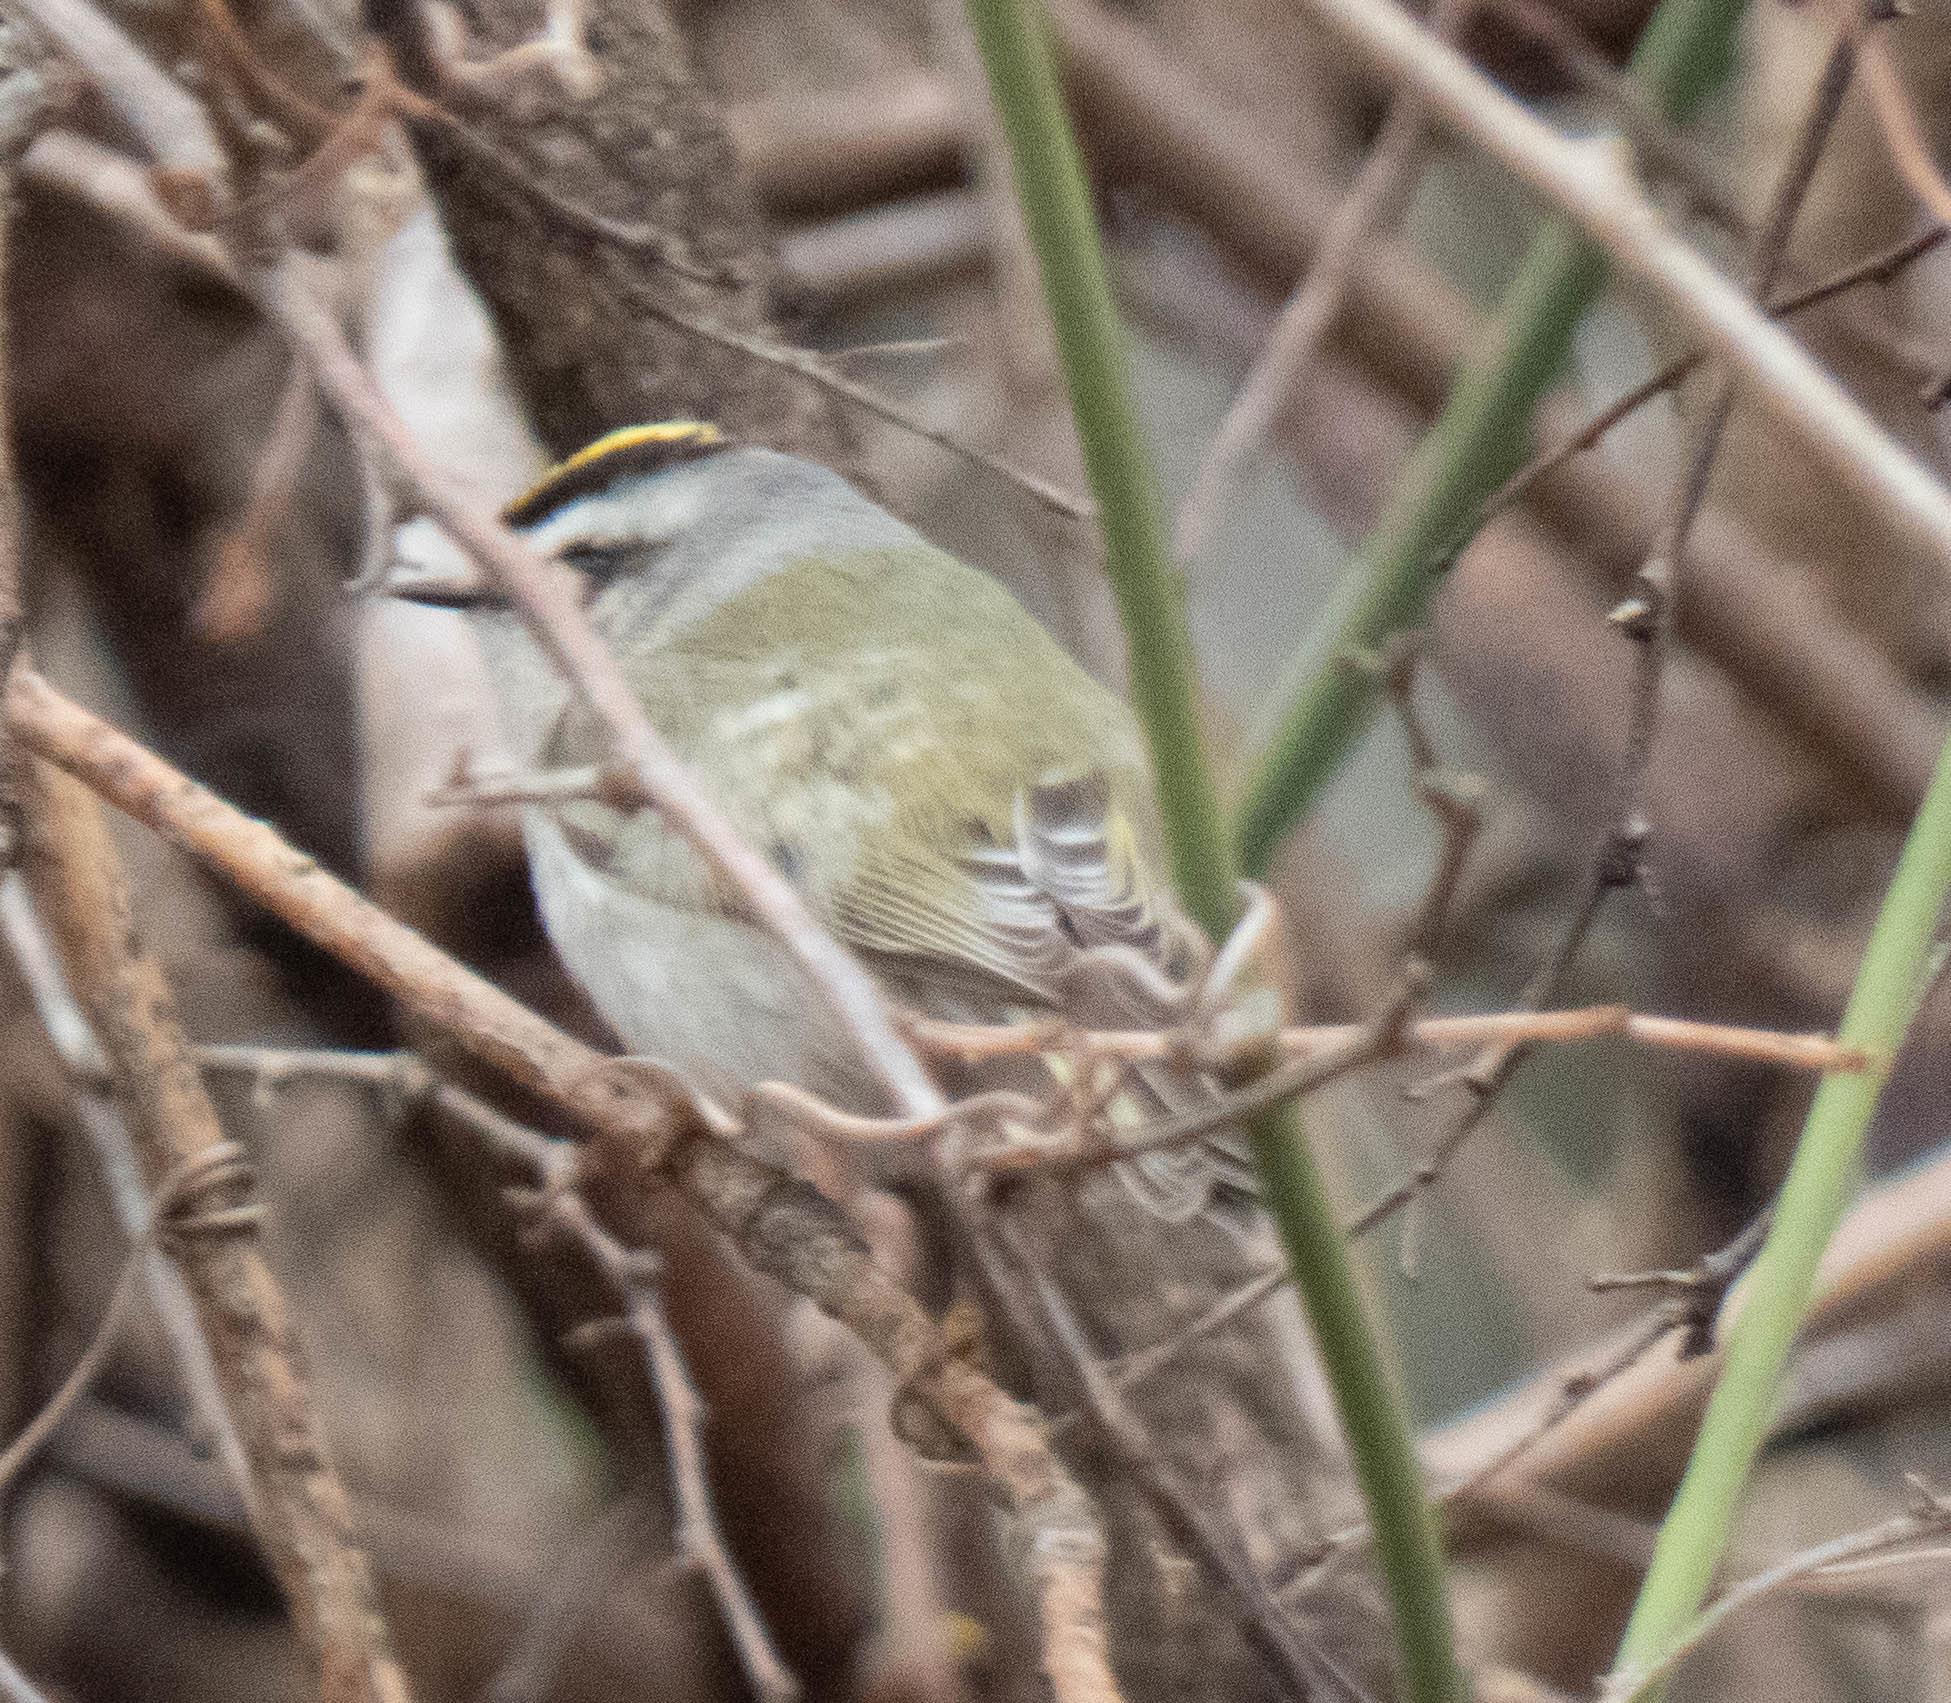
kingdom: Animalia
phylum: Chordata
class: Aves
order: Passeriformes
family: Regulidae
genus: Regulus
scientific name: Regulus satrapa
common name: Golden-crowned kinglet
